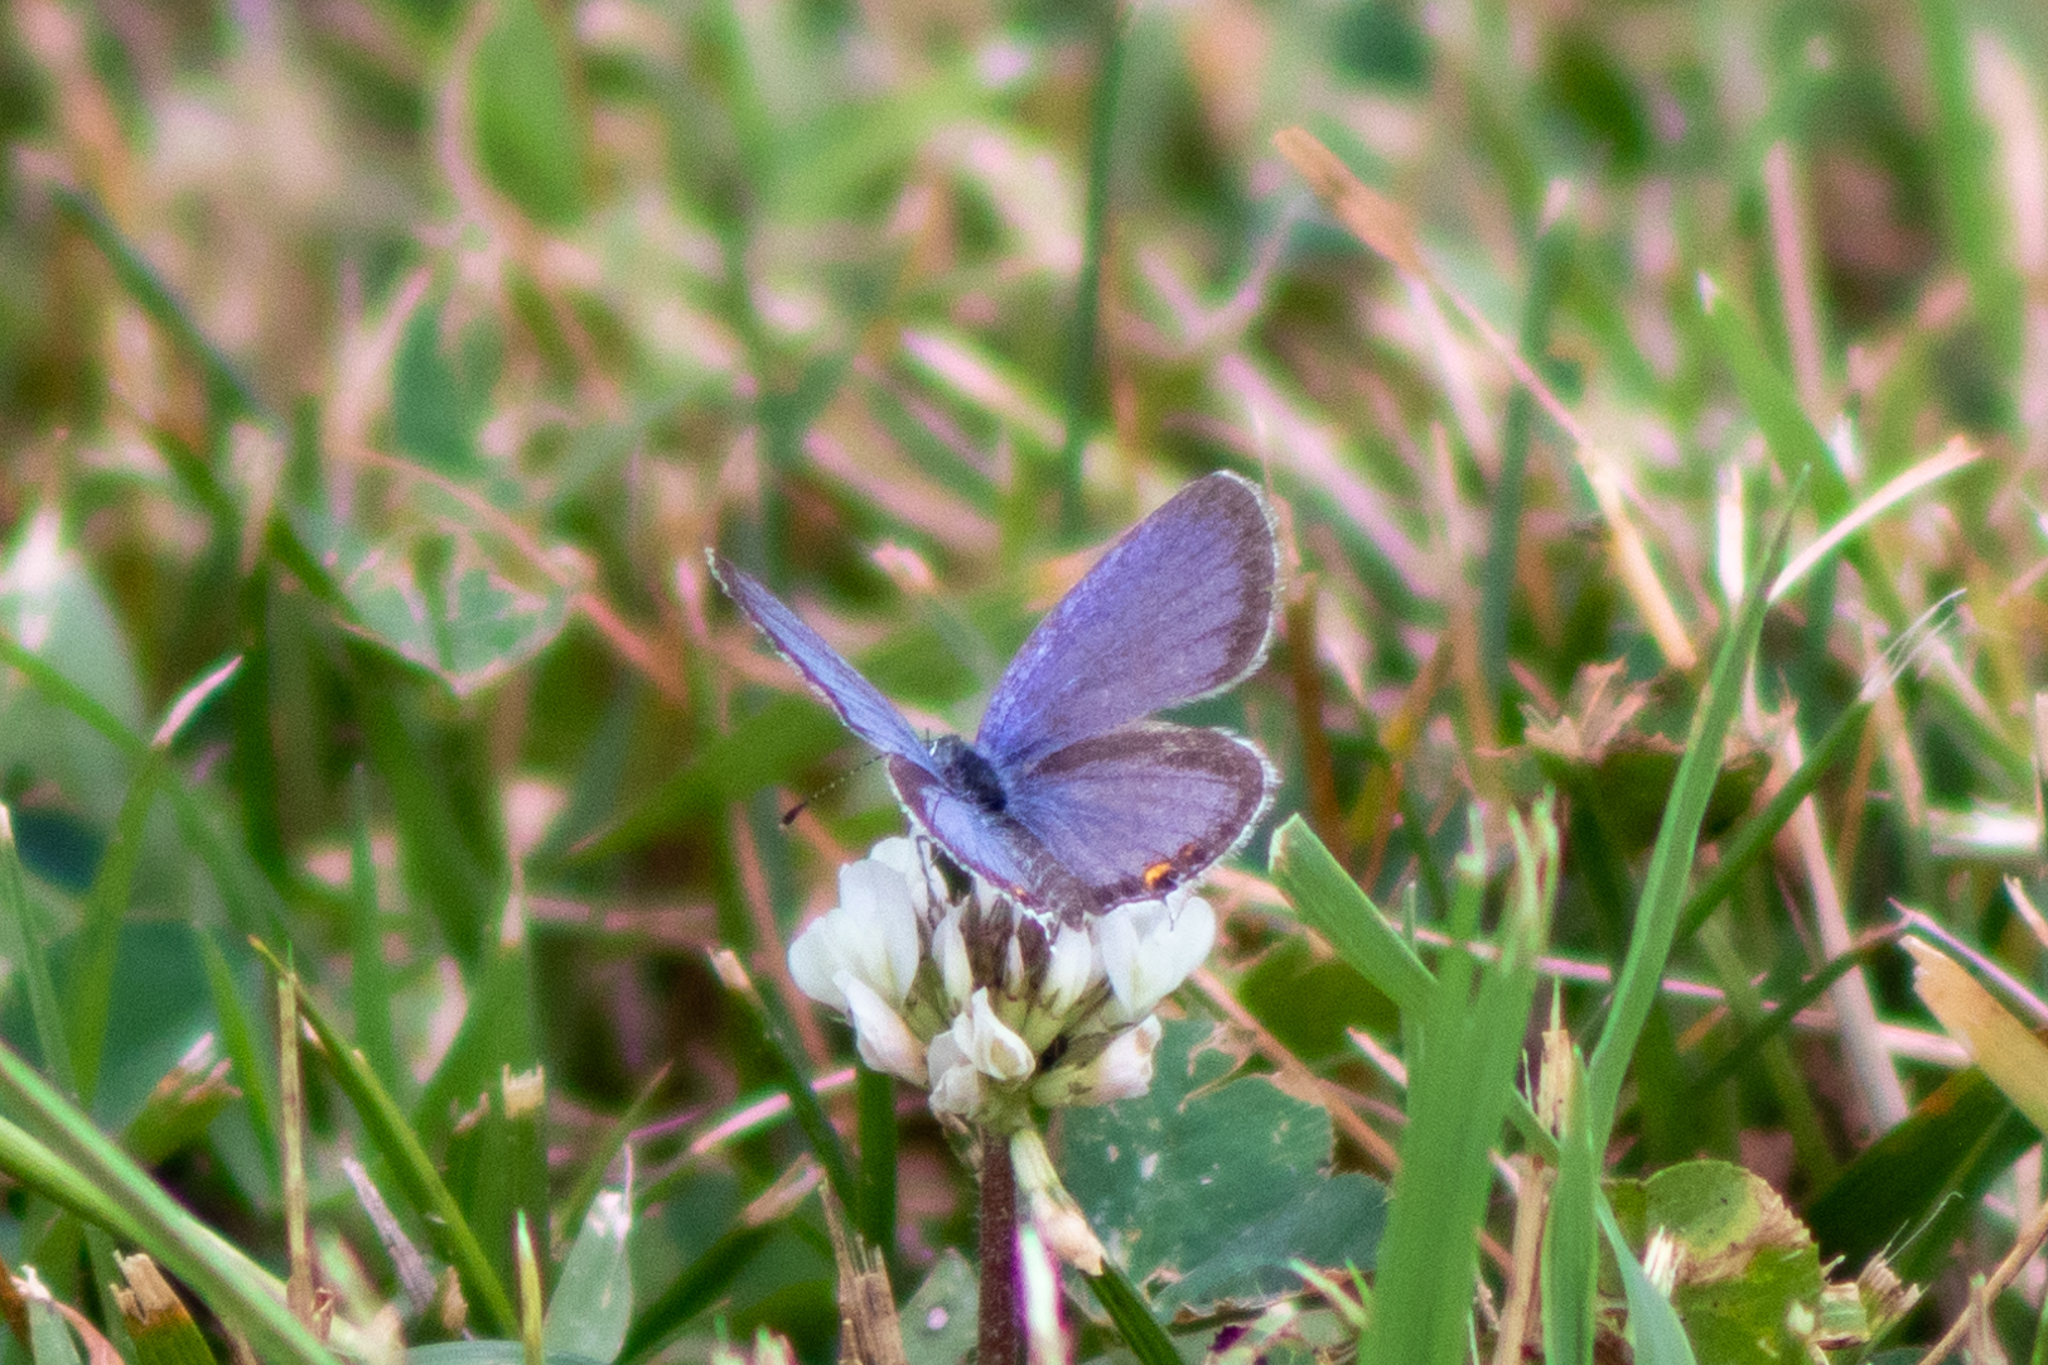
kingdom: Animalia
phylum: Arthropoda
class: Insecta
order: Lepidoptera
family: Lycaenidae
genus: Elkalyce
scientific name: Elkalyce comyntas
